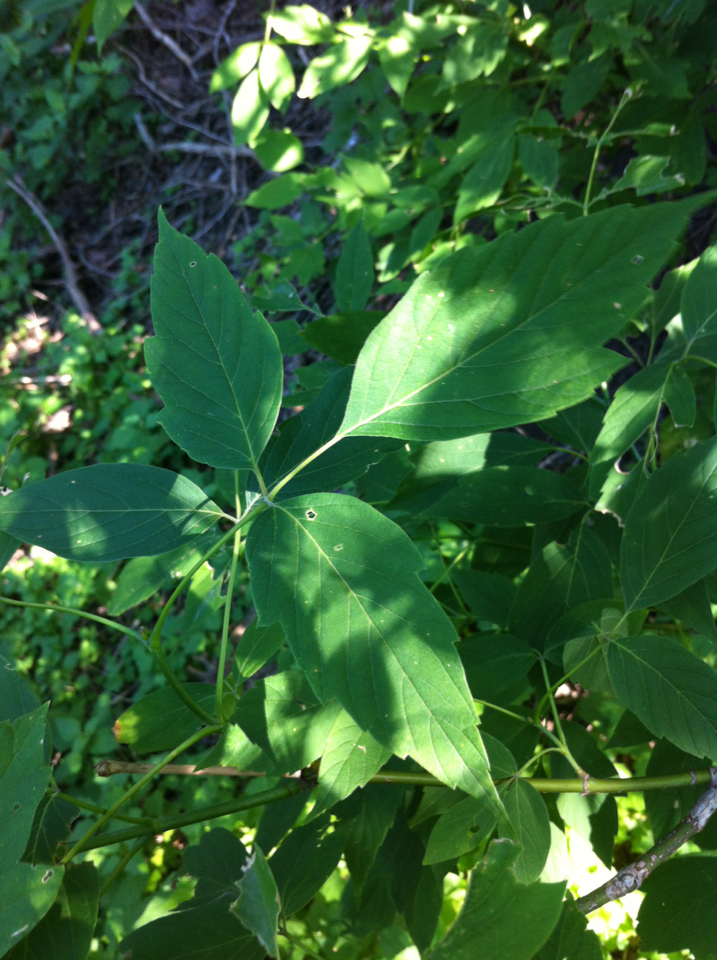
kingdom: Plantae
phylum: Tracheophyta
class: Magnoliopsida
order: Sapindales
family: Sapindaceae
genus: Acer
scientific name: Acer negundo
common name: Ashleaf maple
